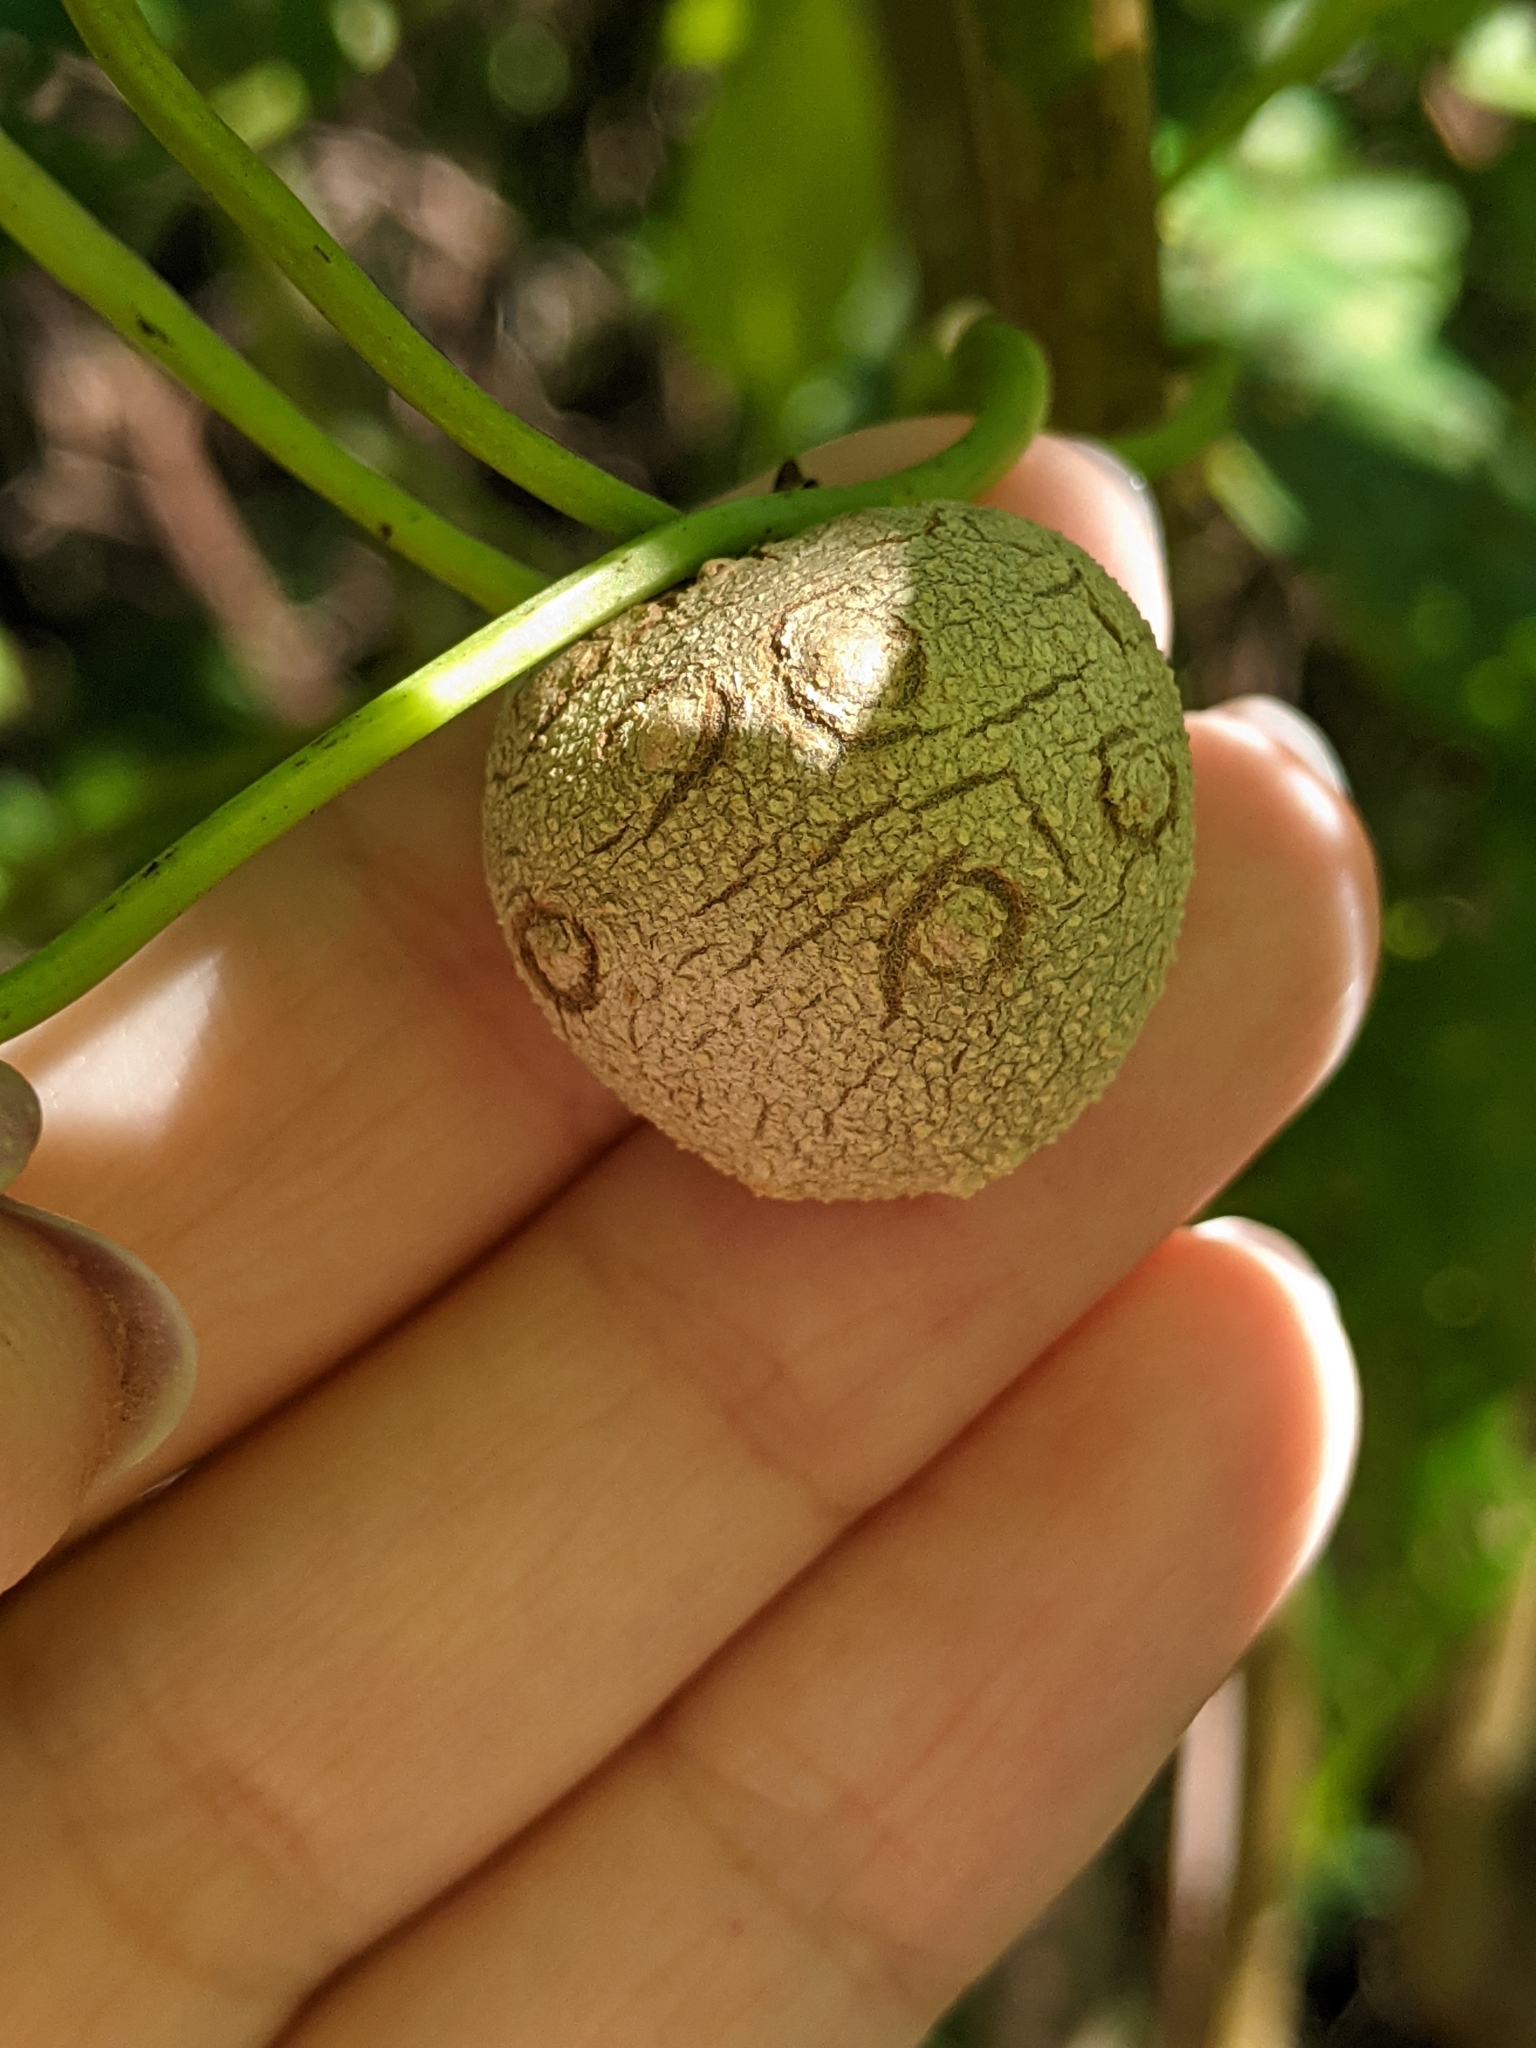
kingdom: Plantae
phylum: Tracheophyta
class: Liliopsida
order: Dioscoreales
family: Dioscoreaceae
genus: Dioscorea
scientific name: Dioscorea bulbifera
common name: Air yam
